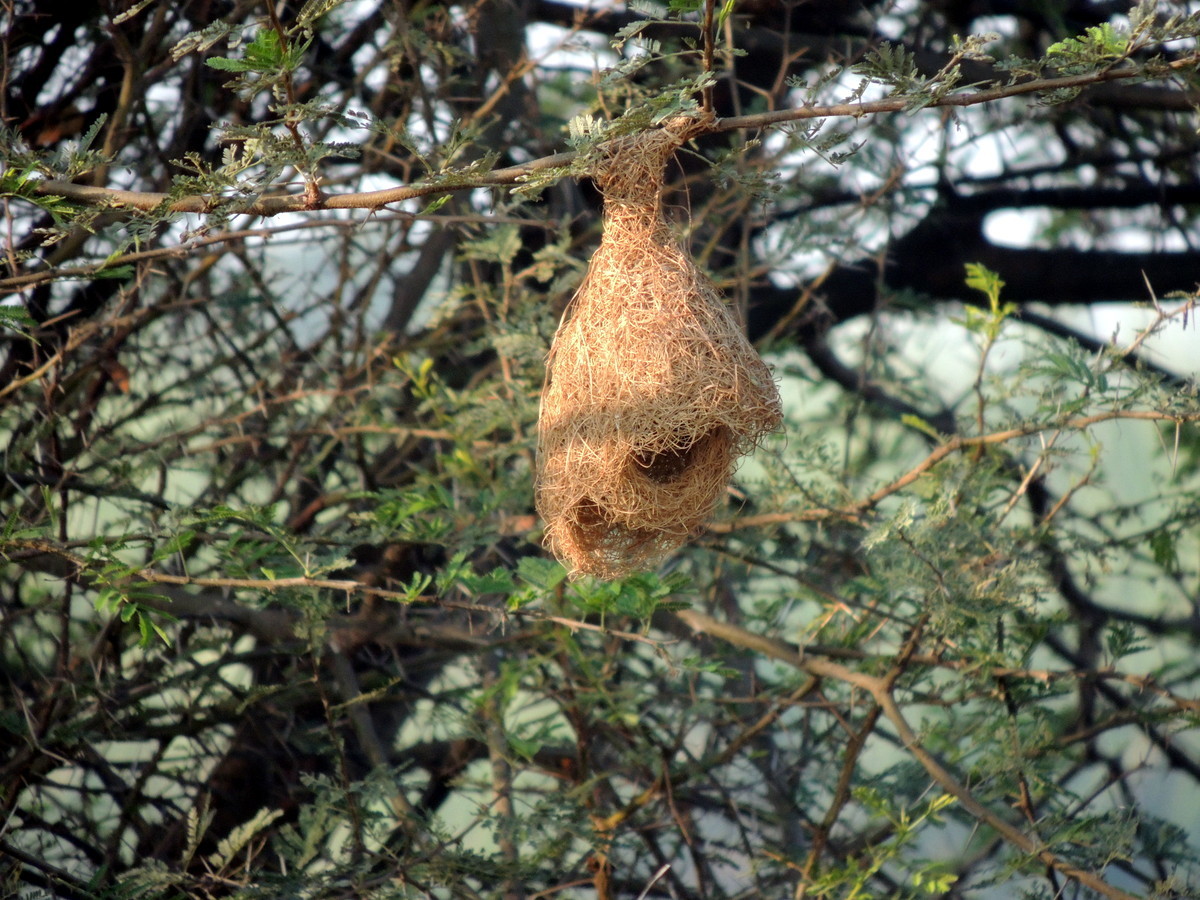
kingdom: Animalia
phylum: Chordata
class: Aves
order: Passeriformes
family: Ploceidae
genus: Ploceus
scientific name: Ploceus philippinus
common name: Baya weaver
